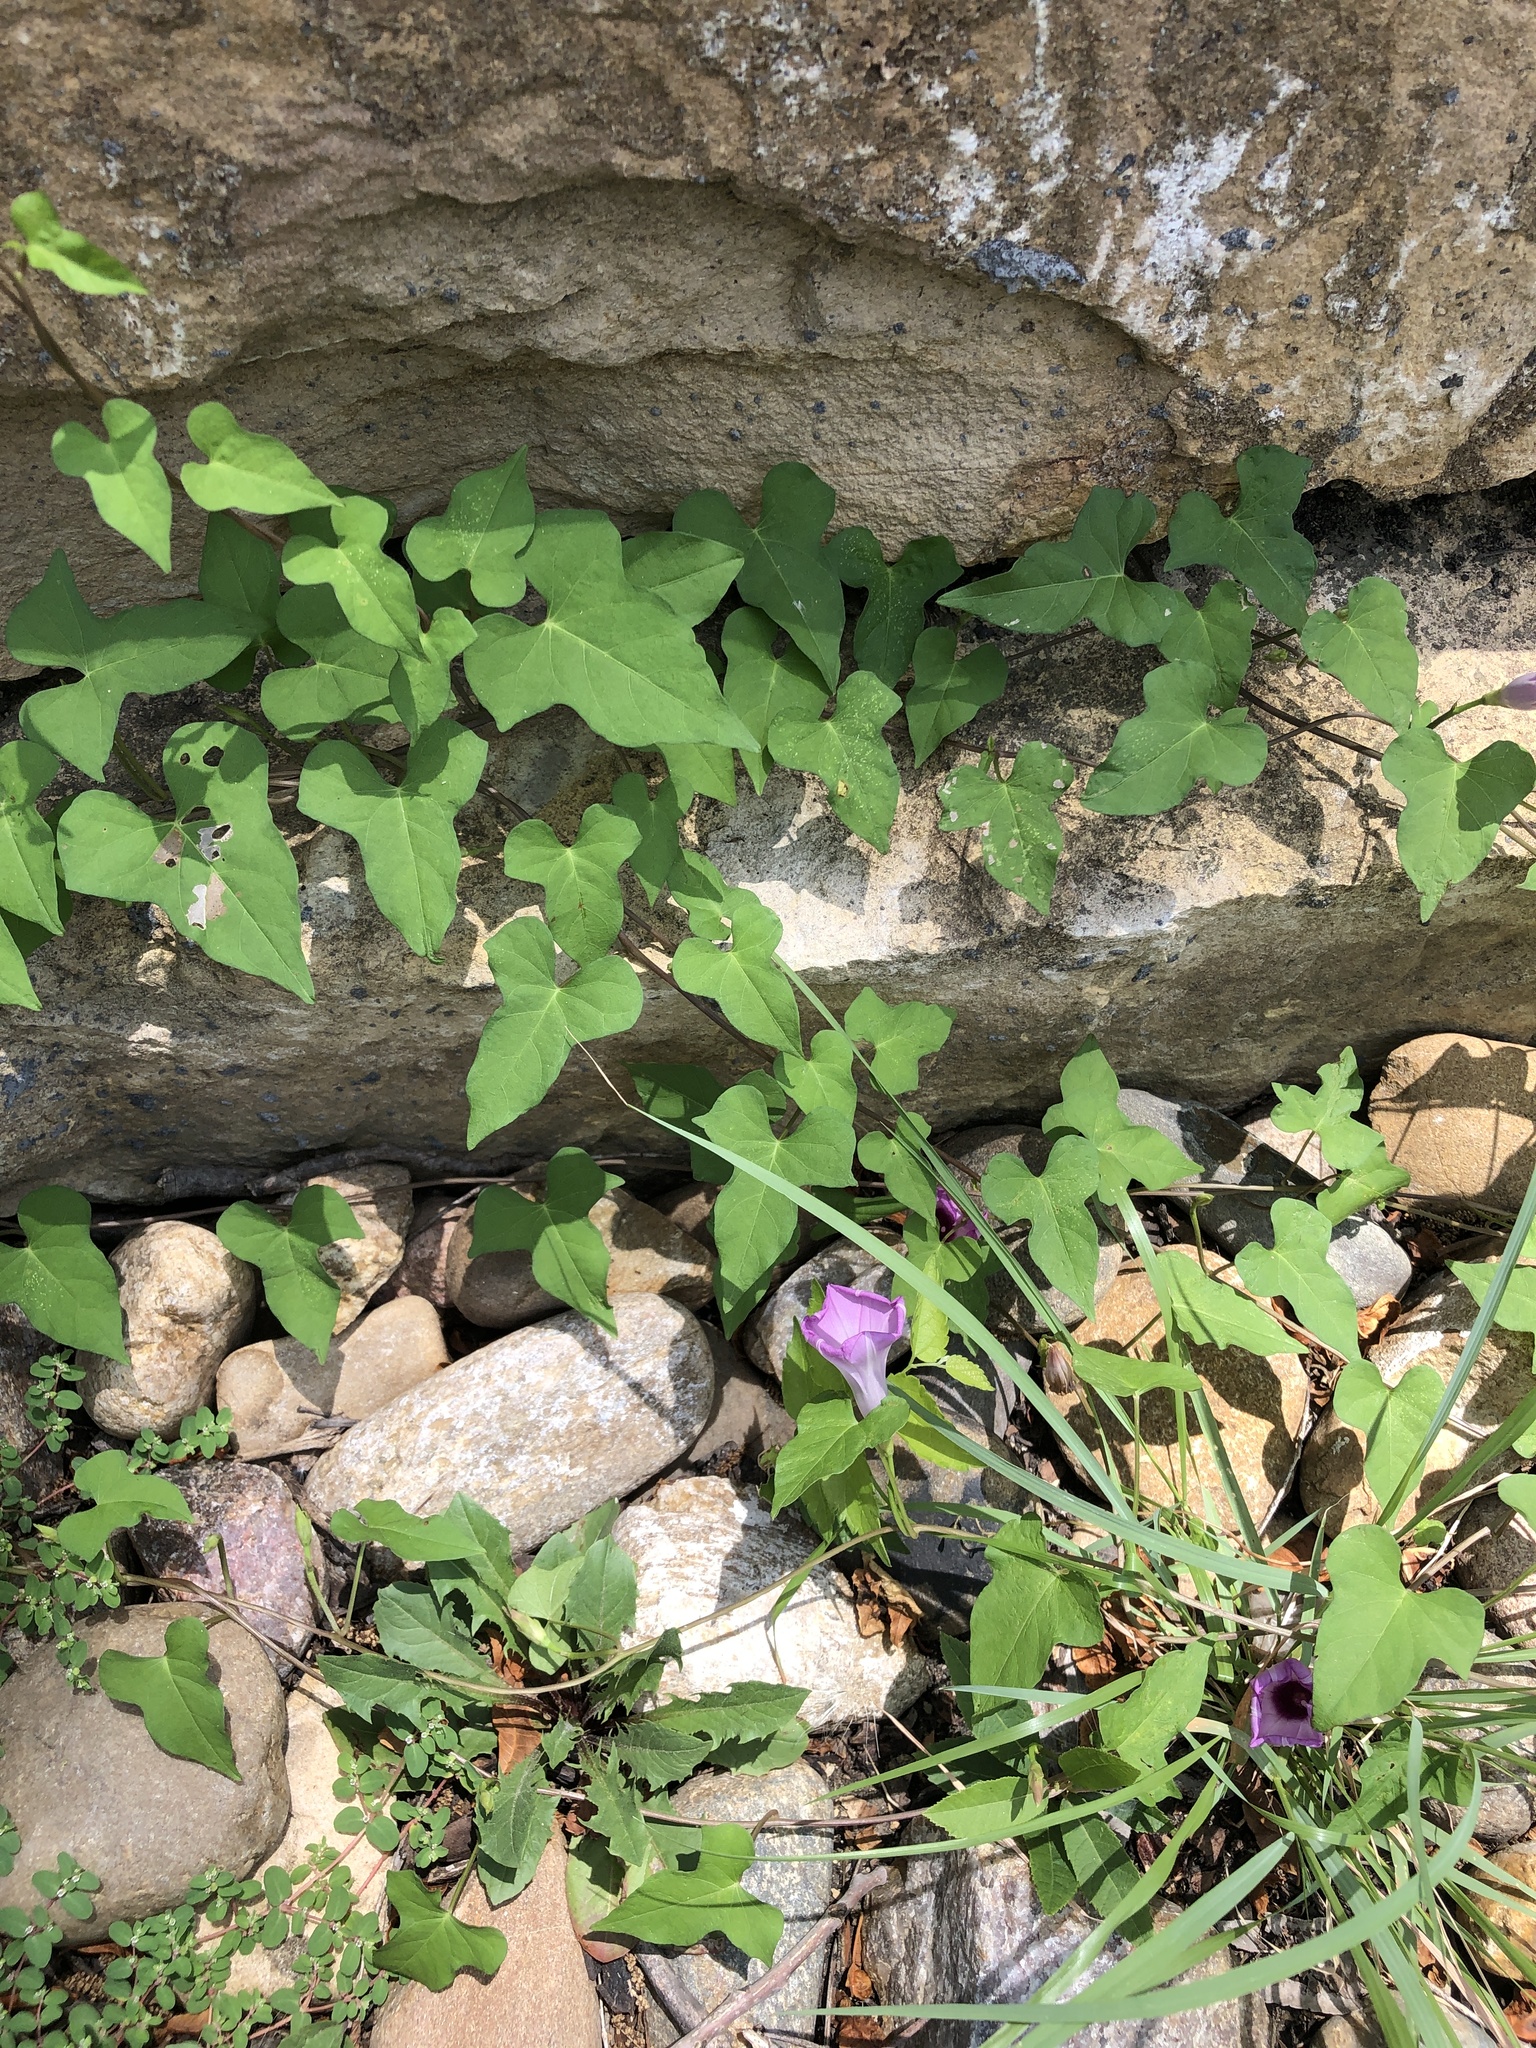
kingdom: Plantae
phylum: Tracheophyta
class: Magnoliopsida
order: Solanales
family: Convolvulaceae
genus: Ipomoea
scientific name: Ipomoea cordatotriloba
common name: Cotton morning glory
